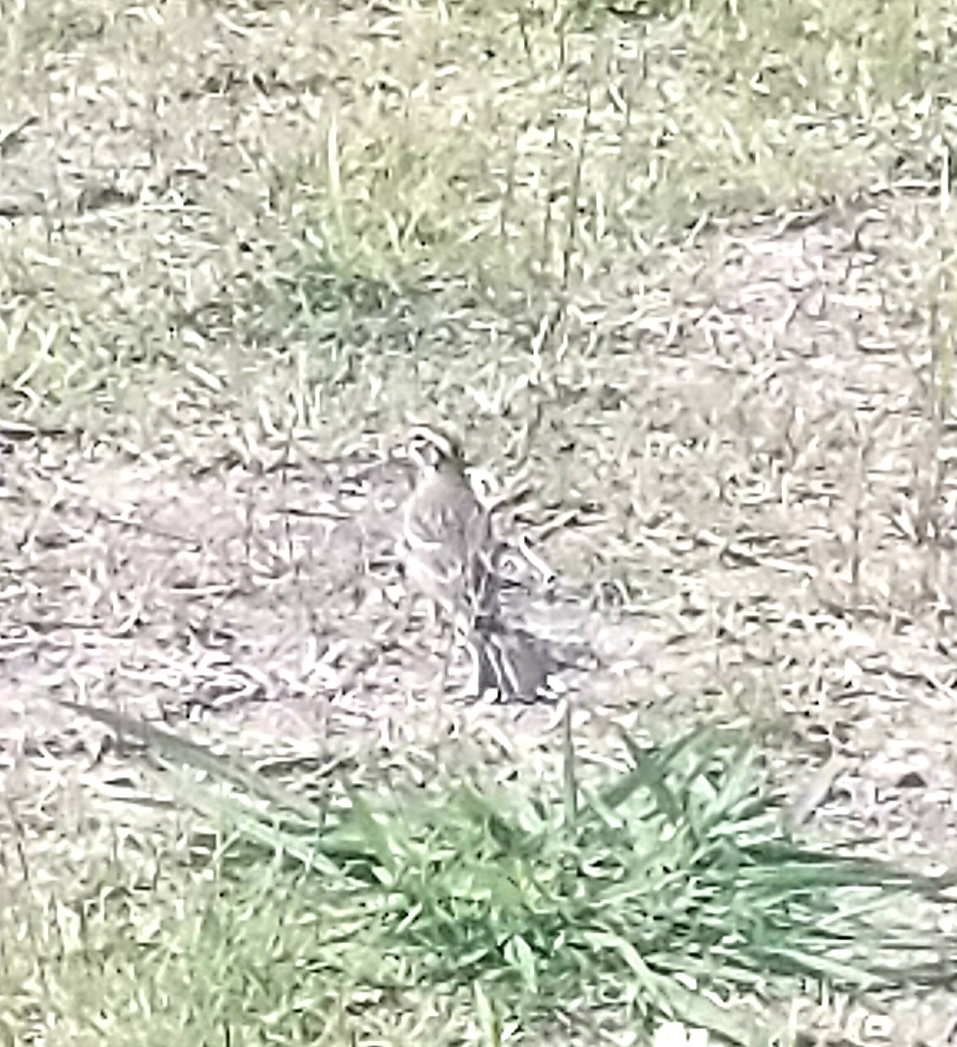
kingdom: Animalia
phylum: Chordata
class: Aves
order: Passeriformes
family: Passerellidae
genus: Chondestes
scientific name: Chondestes grammacus
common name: Lark sparrow
